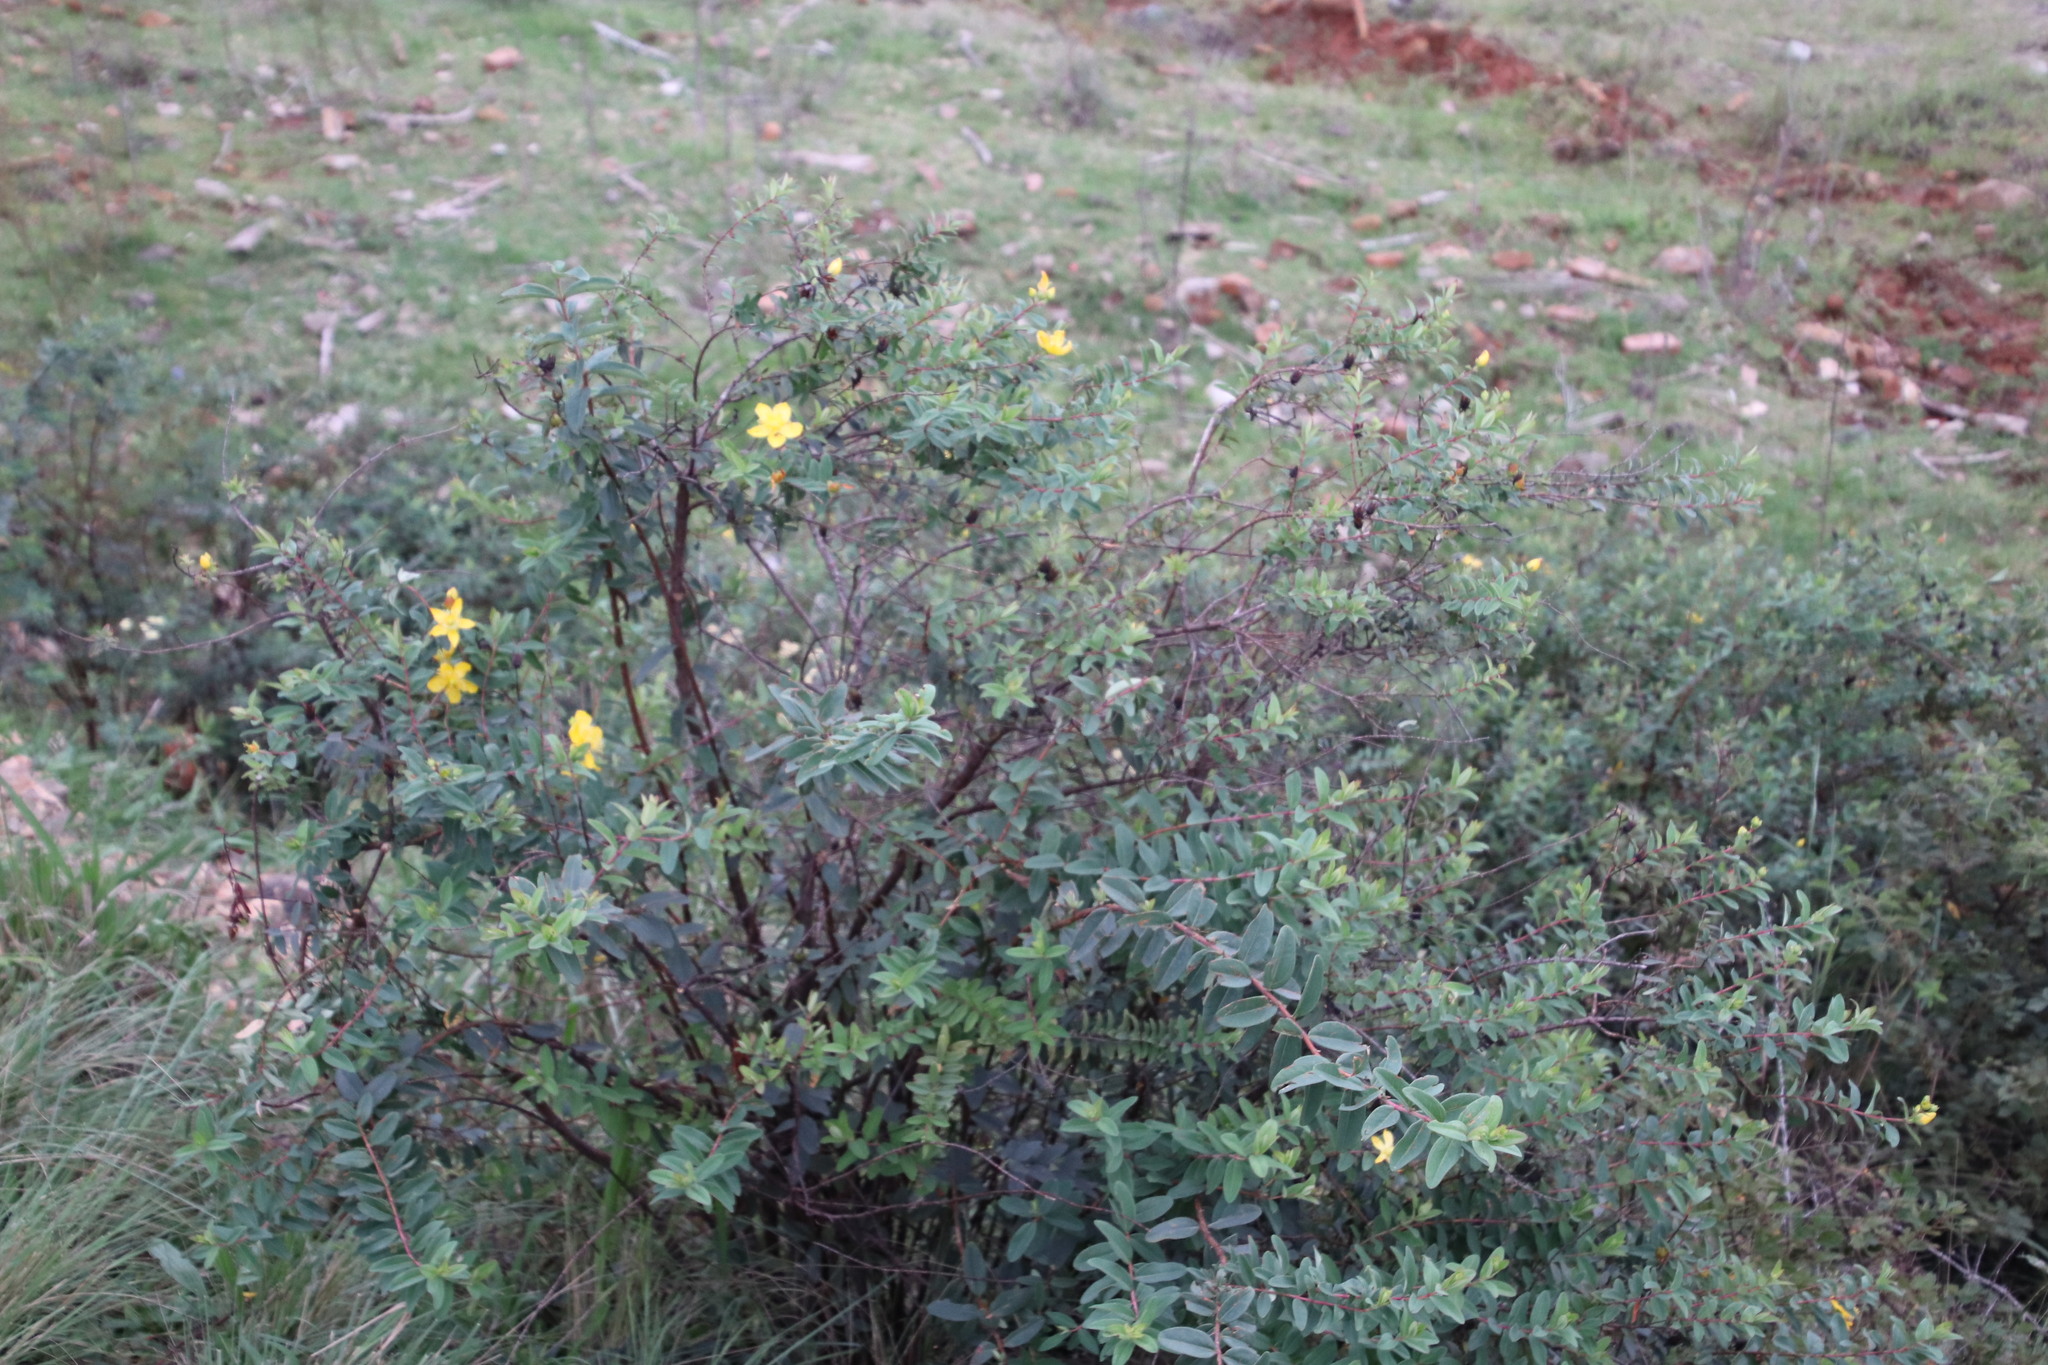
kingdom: Plantae
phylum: Tracheophyta
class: Magnoliopsida
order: Malpighiales
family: Hypericaceae
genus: Hypericum
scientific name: Hypericum pseudohenryi
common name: Irish tutsan
